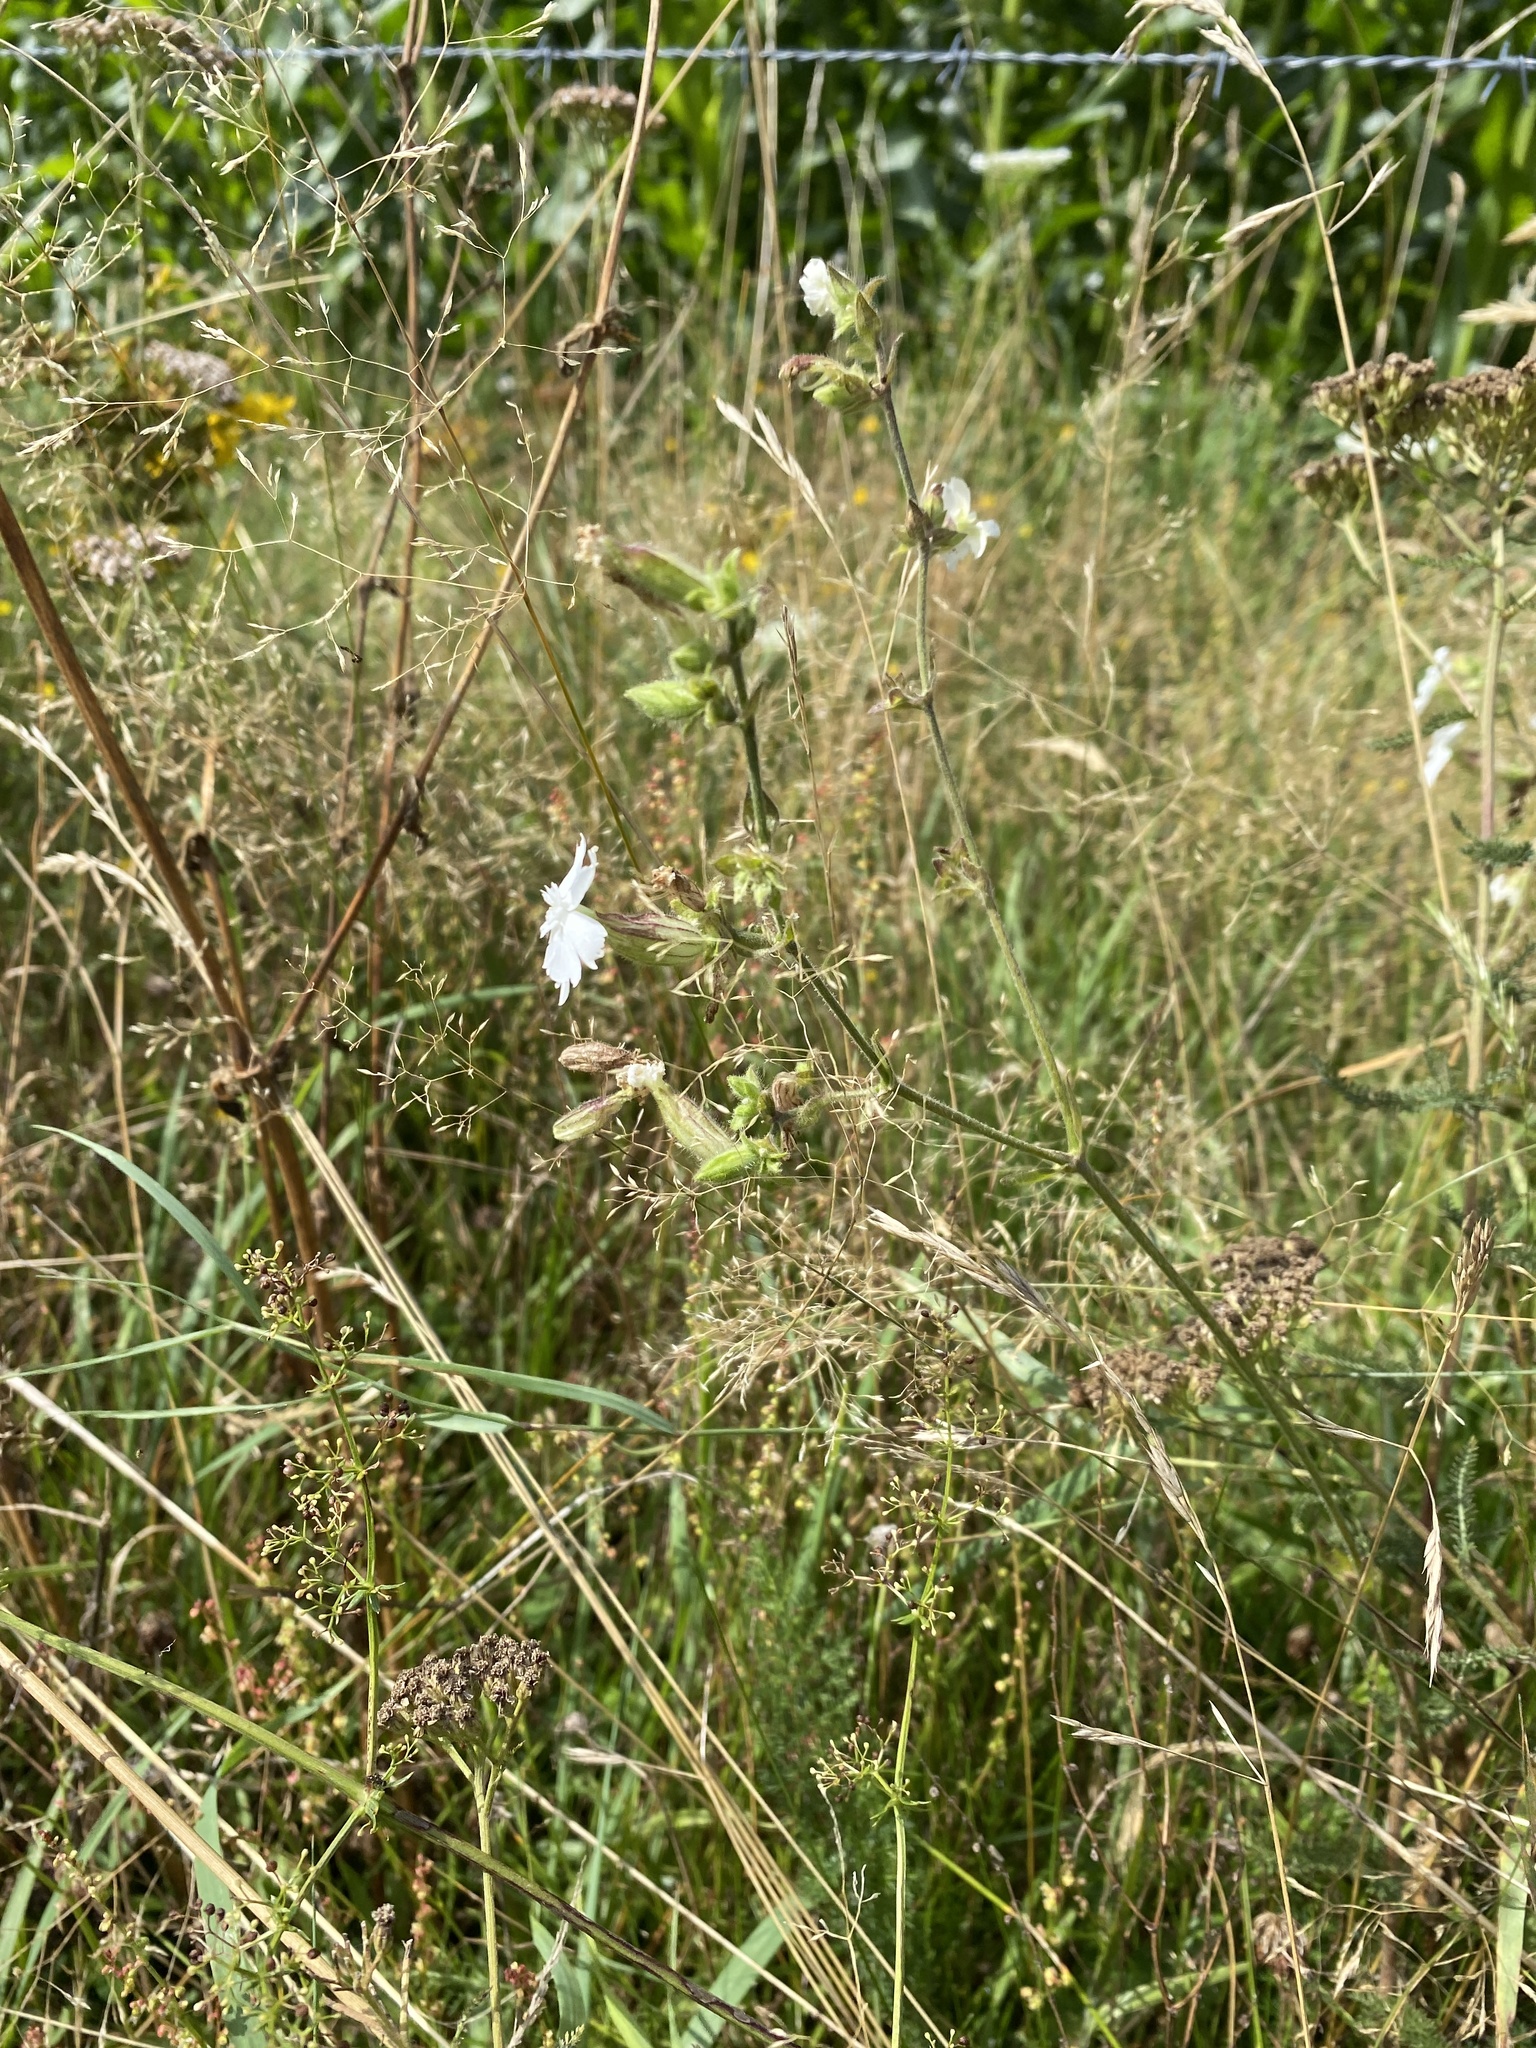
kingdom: Plantae
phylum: Tracheophyta
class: Magnoliopsida
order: Caryophyllales
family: Caryophyllaceae
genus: Silene
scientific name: Silene latifolia
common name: White campion
